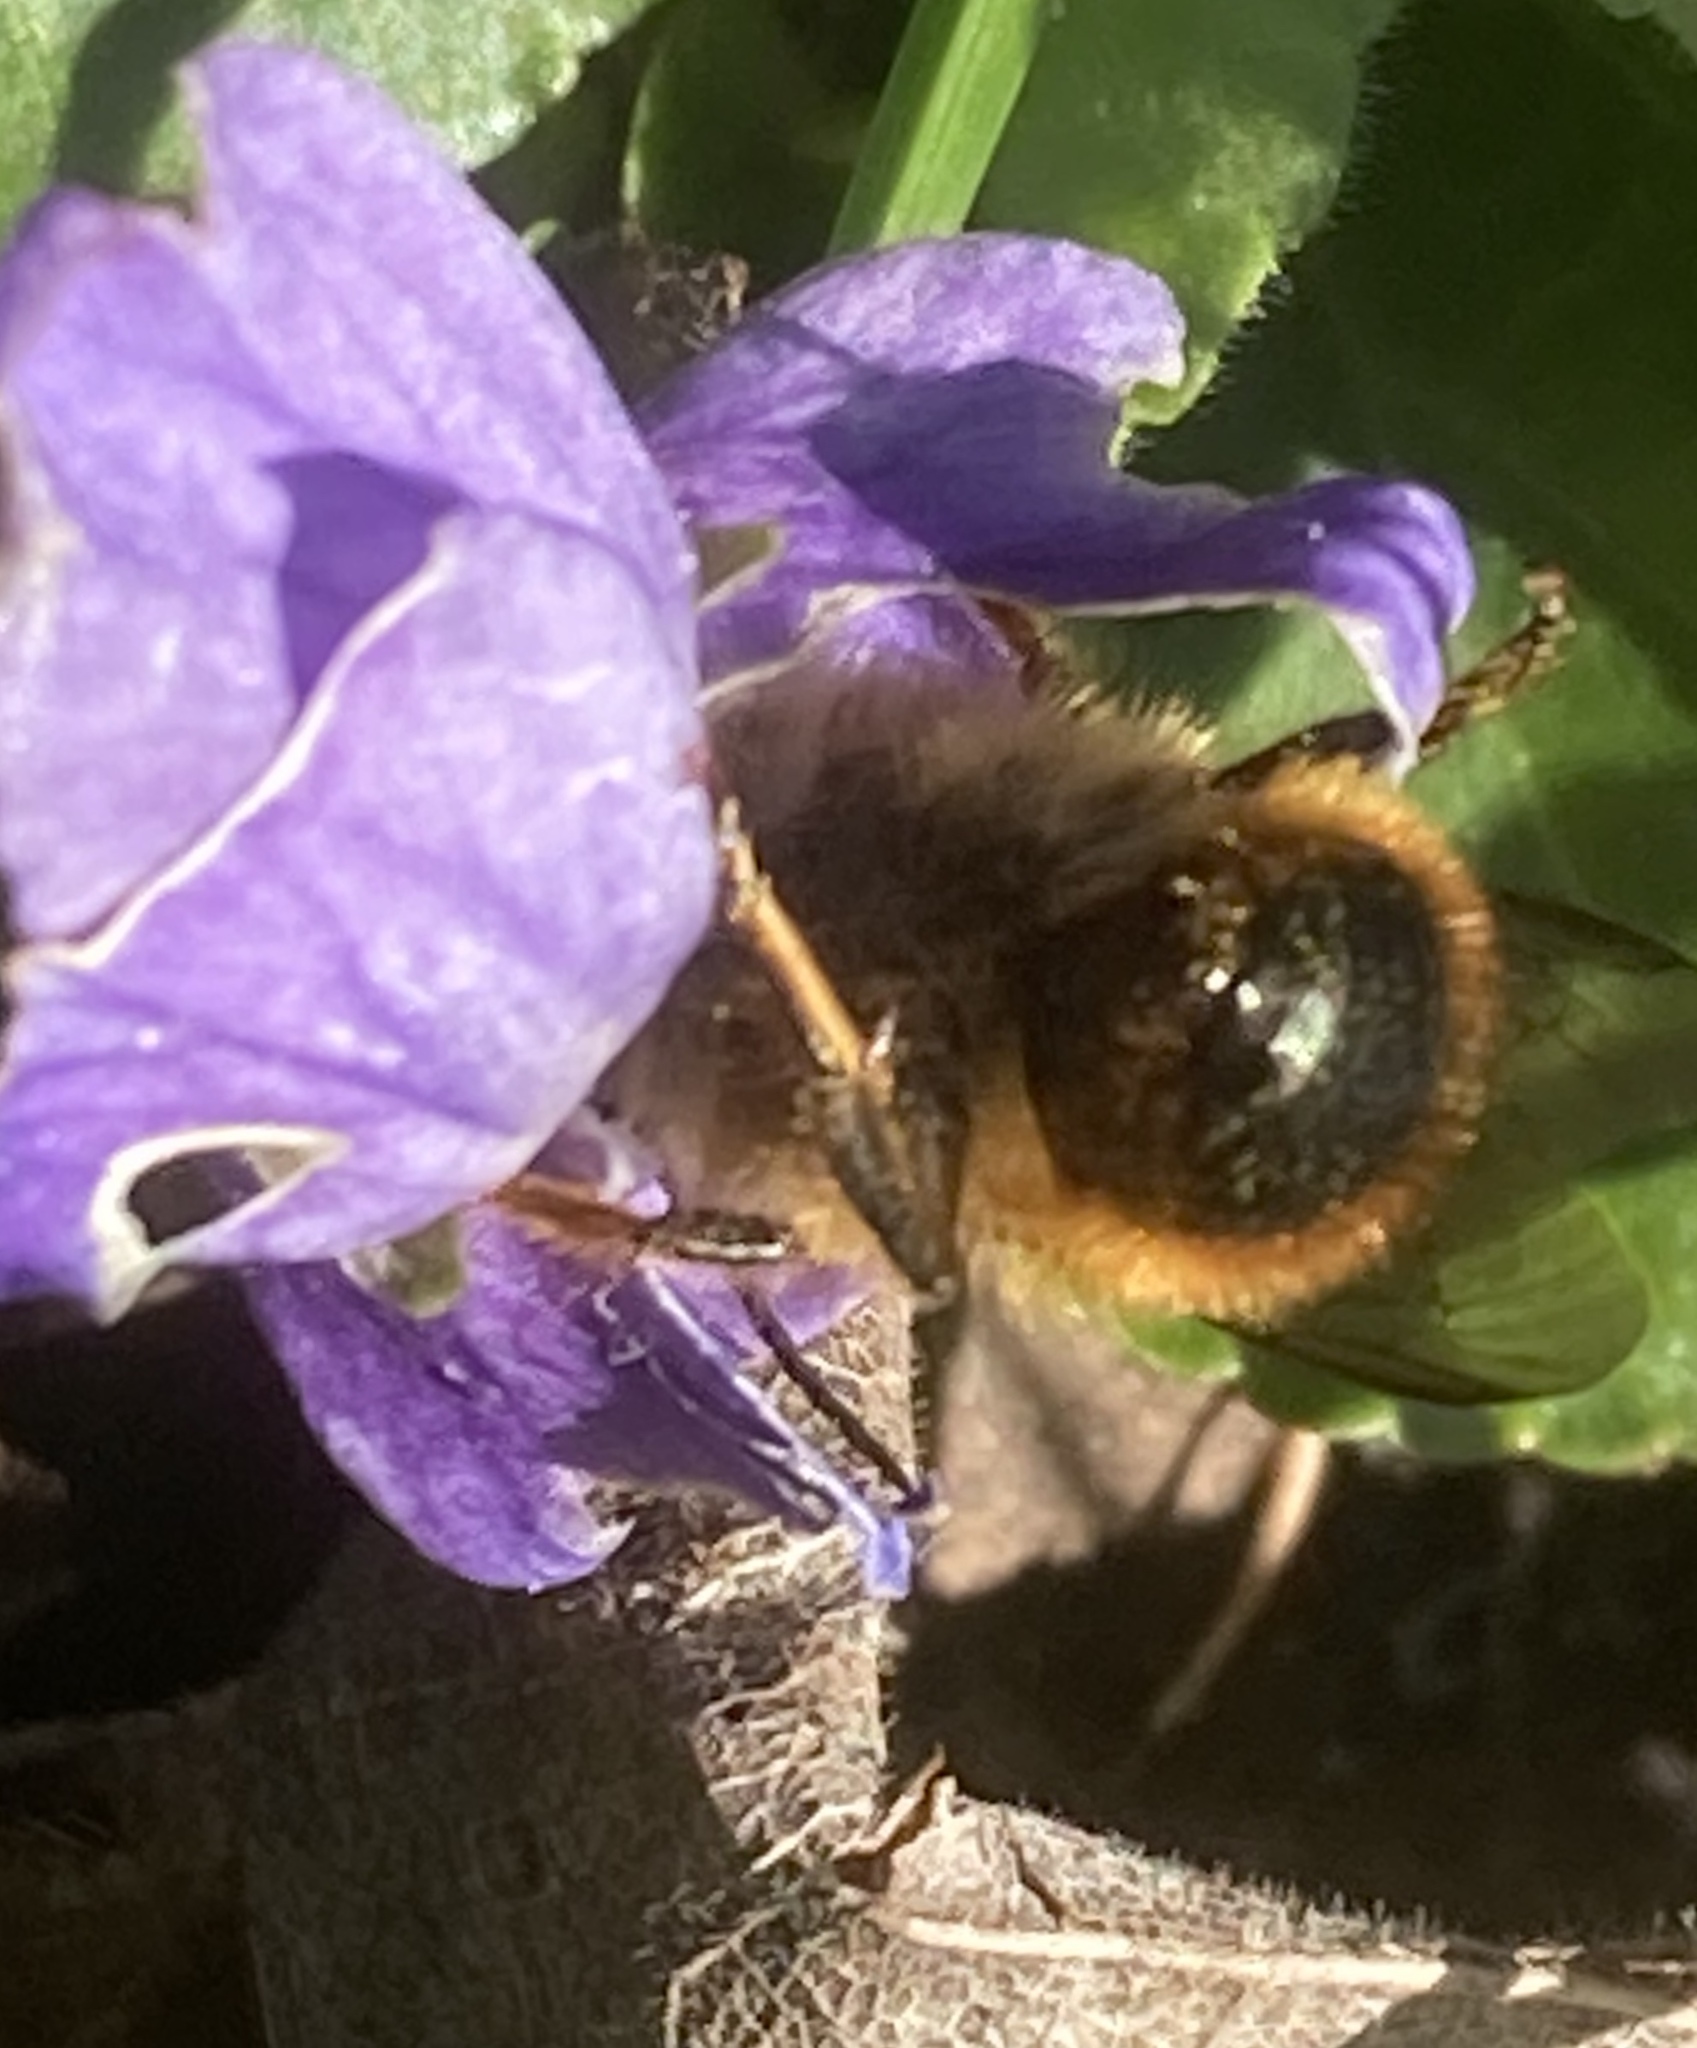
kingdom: Animalia
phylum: Arthropoda
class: Insecta
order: Hymenoptera
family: Megachilidae
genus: Osmia
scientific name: Osmia bicornis
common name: Red mason bee
